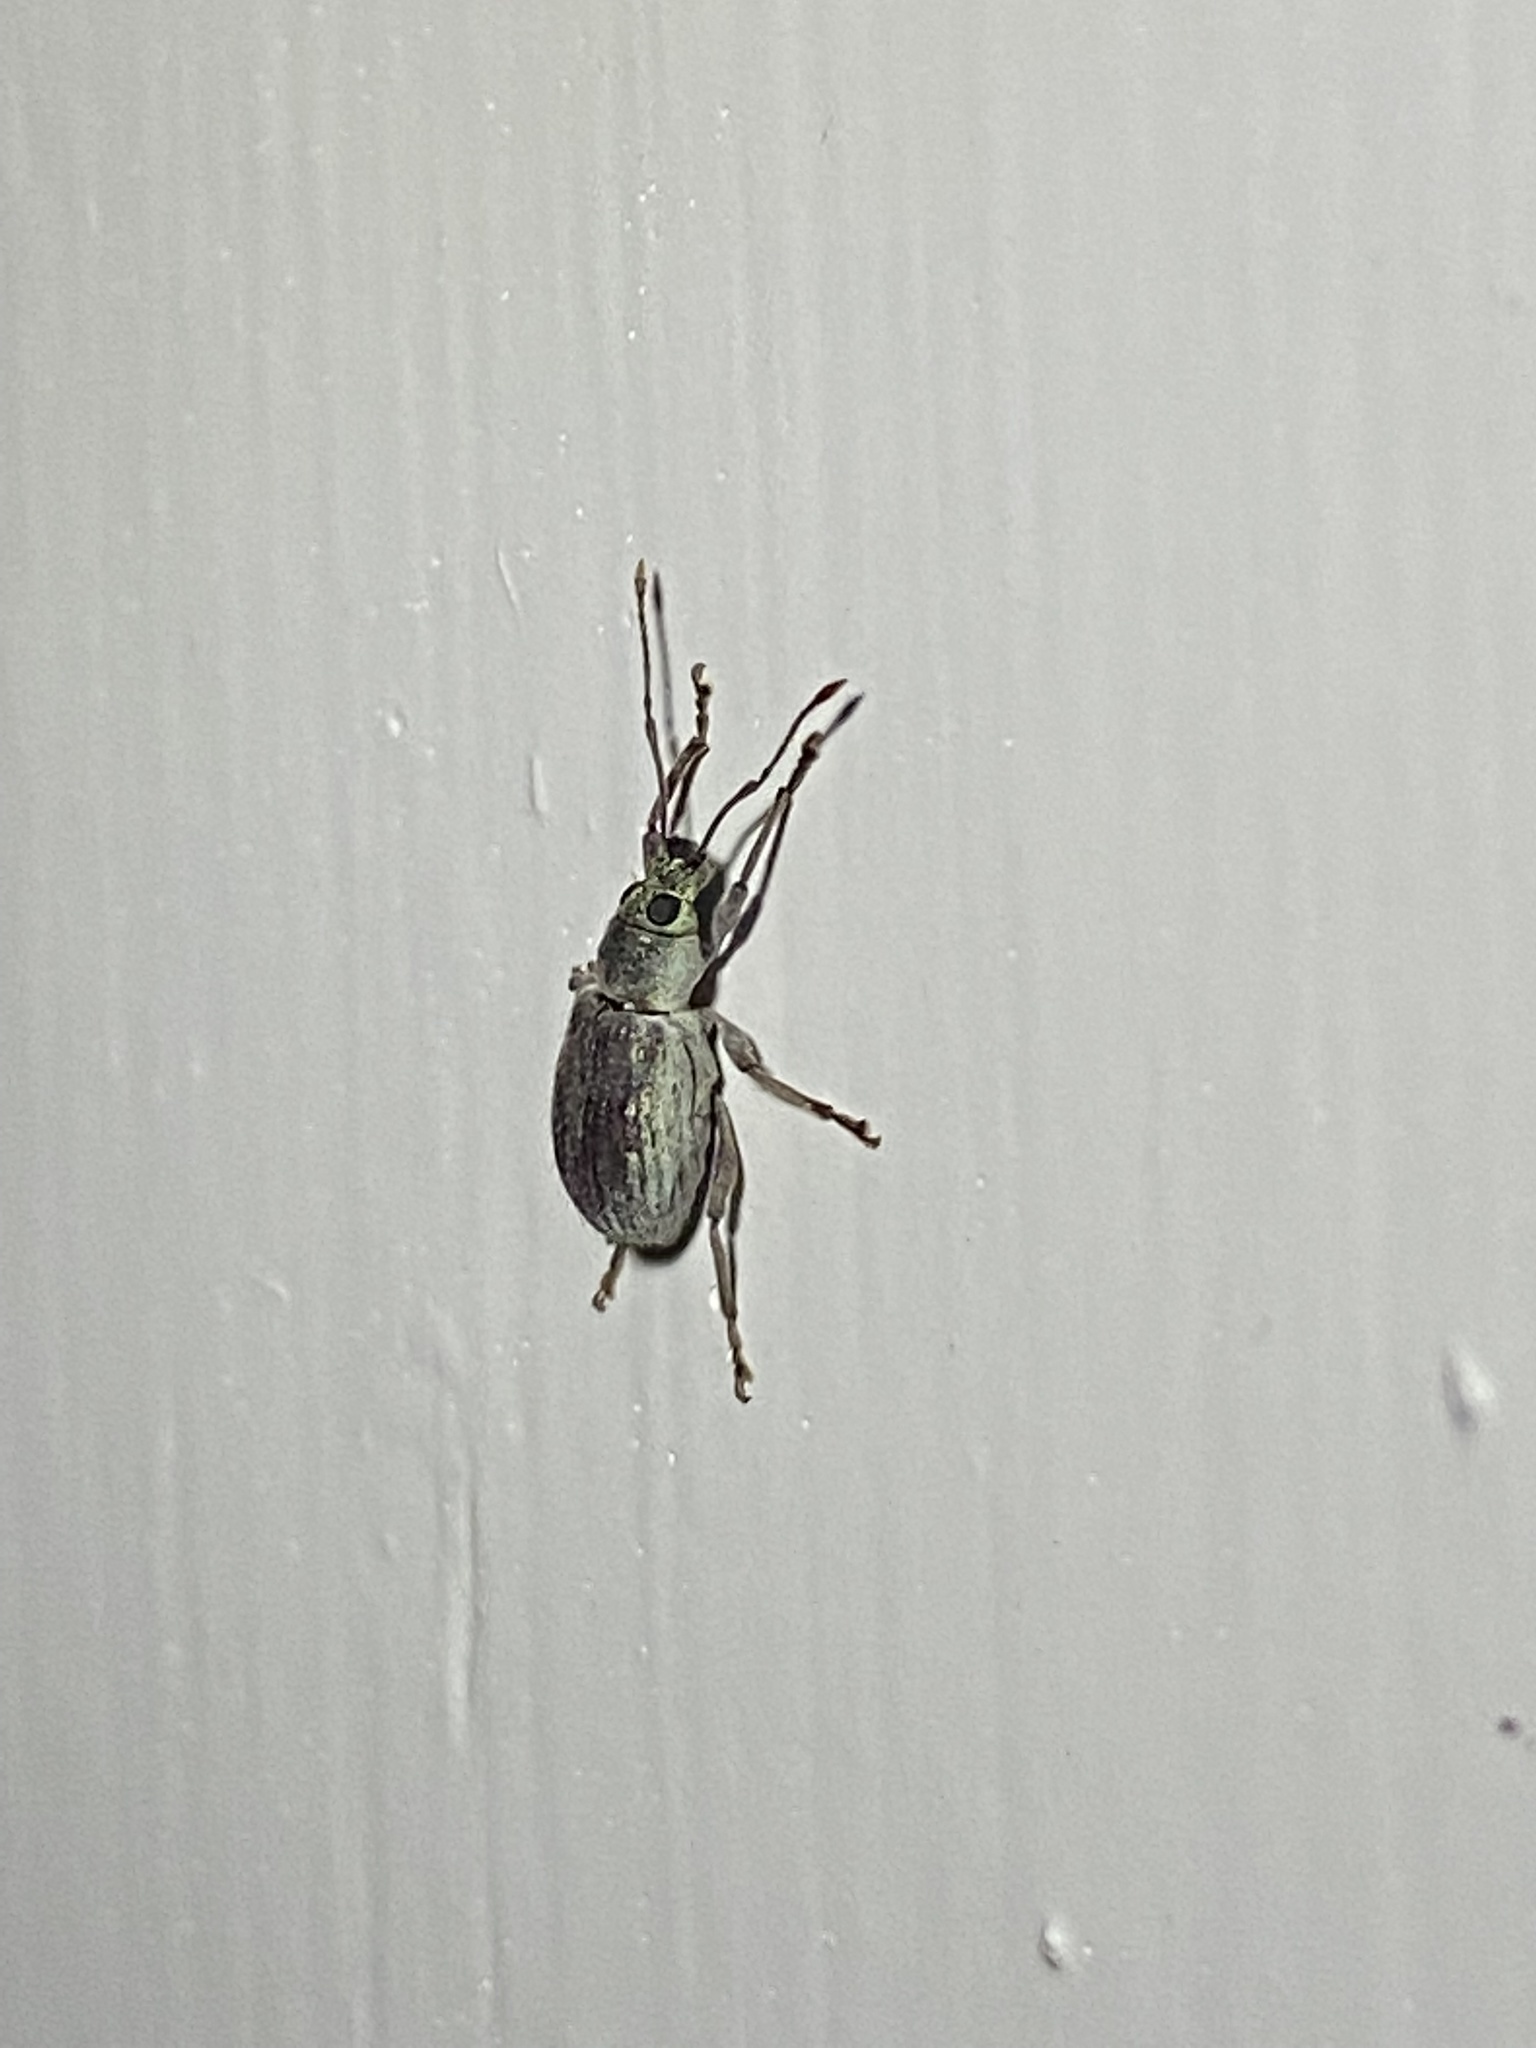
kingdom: Animalia
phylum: Arthropoda
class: Insecta
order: Coleoptera
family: Curculionidae
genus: Cyrtepistomus
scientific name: Cyrtepistomus castaneus
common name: Weevil
